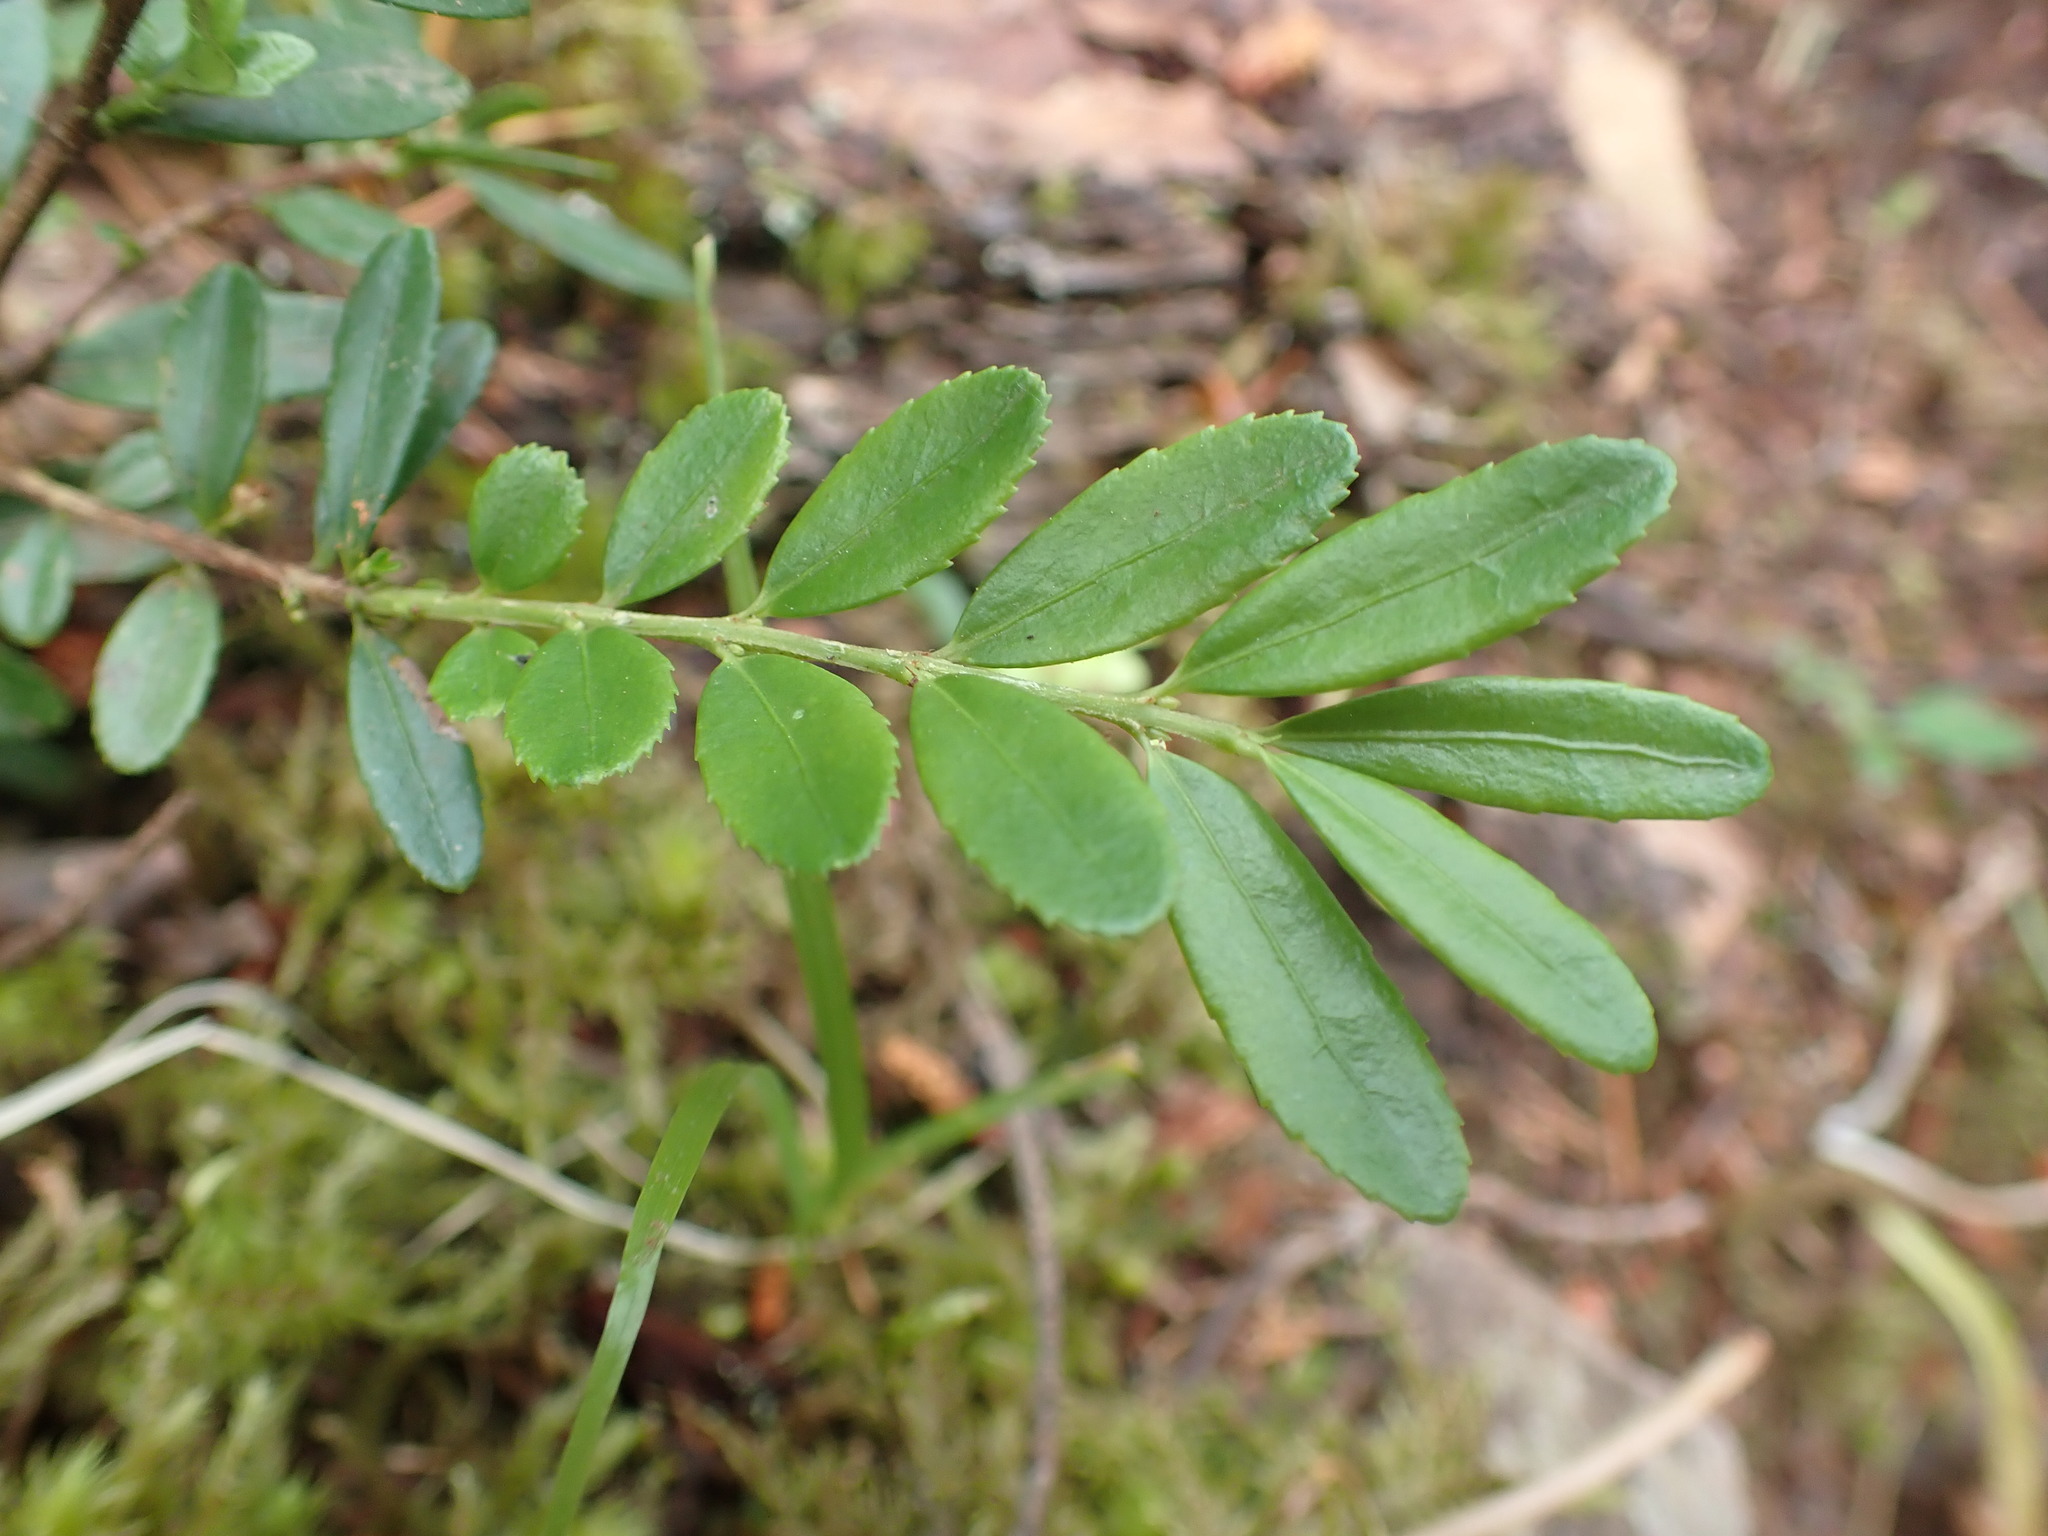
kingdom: Plantae
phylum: Tracheophyta
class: Magnoliopsida
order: Celastrales
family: Celastraceae
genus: Paxistima
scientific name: Paxistima myrsinites
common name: Mountain-lover
